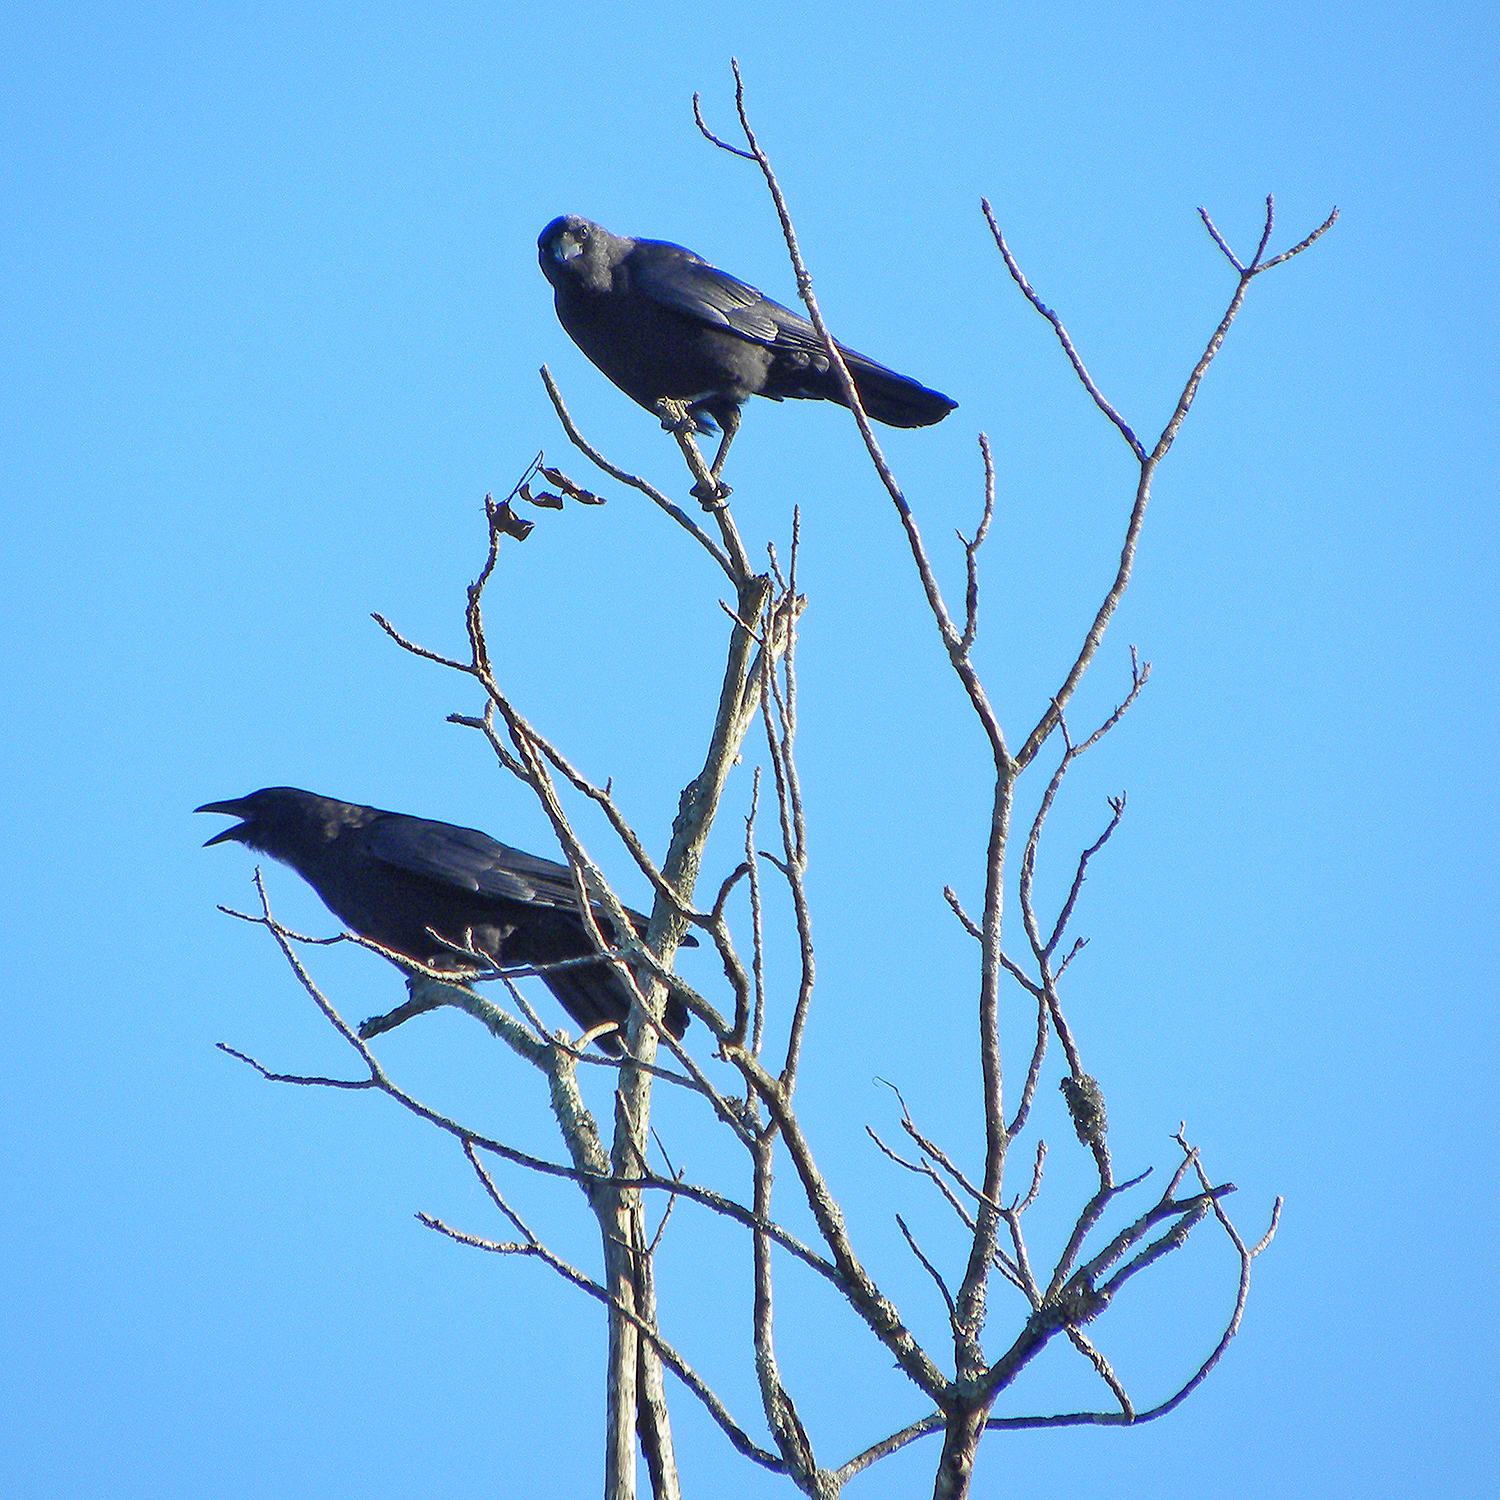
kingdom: Animalia
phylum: Chordata
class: Aves
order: Passeriformes
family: Corvidae
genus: Corvus
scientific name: Corvus brachyrhynchos
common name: American crow
